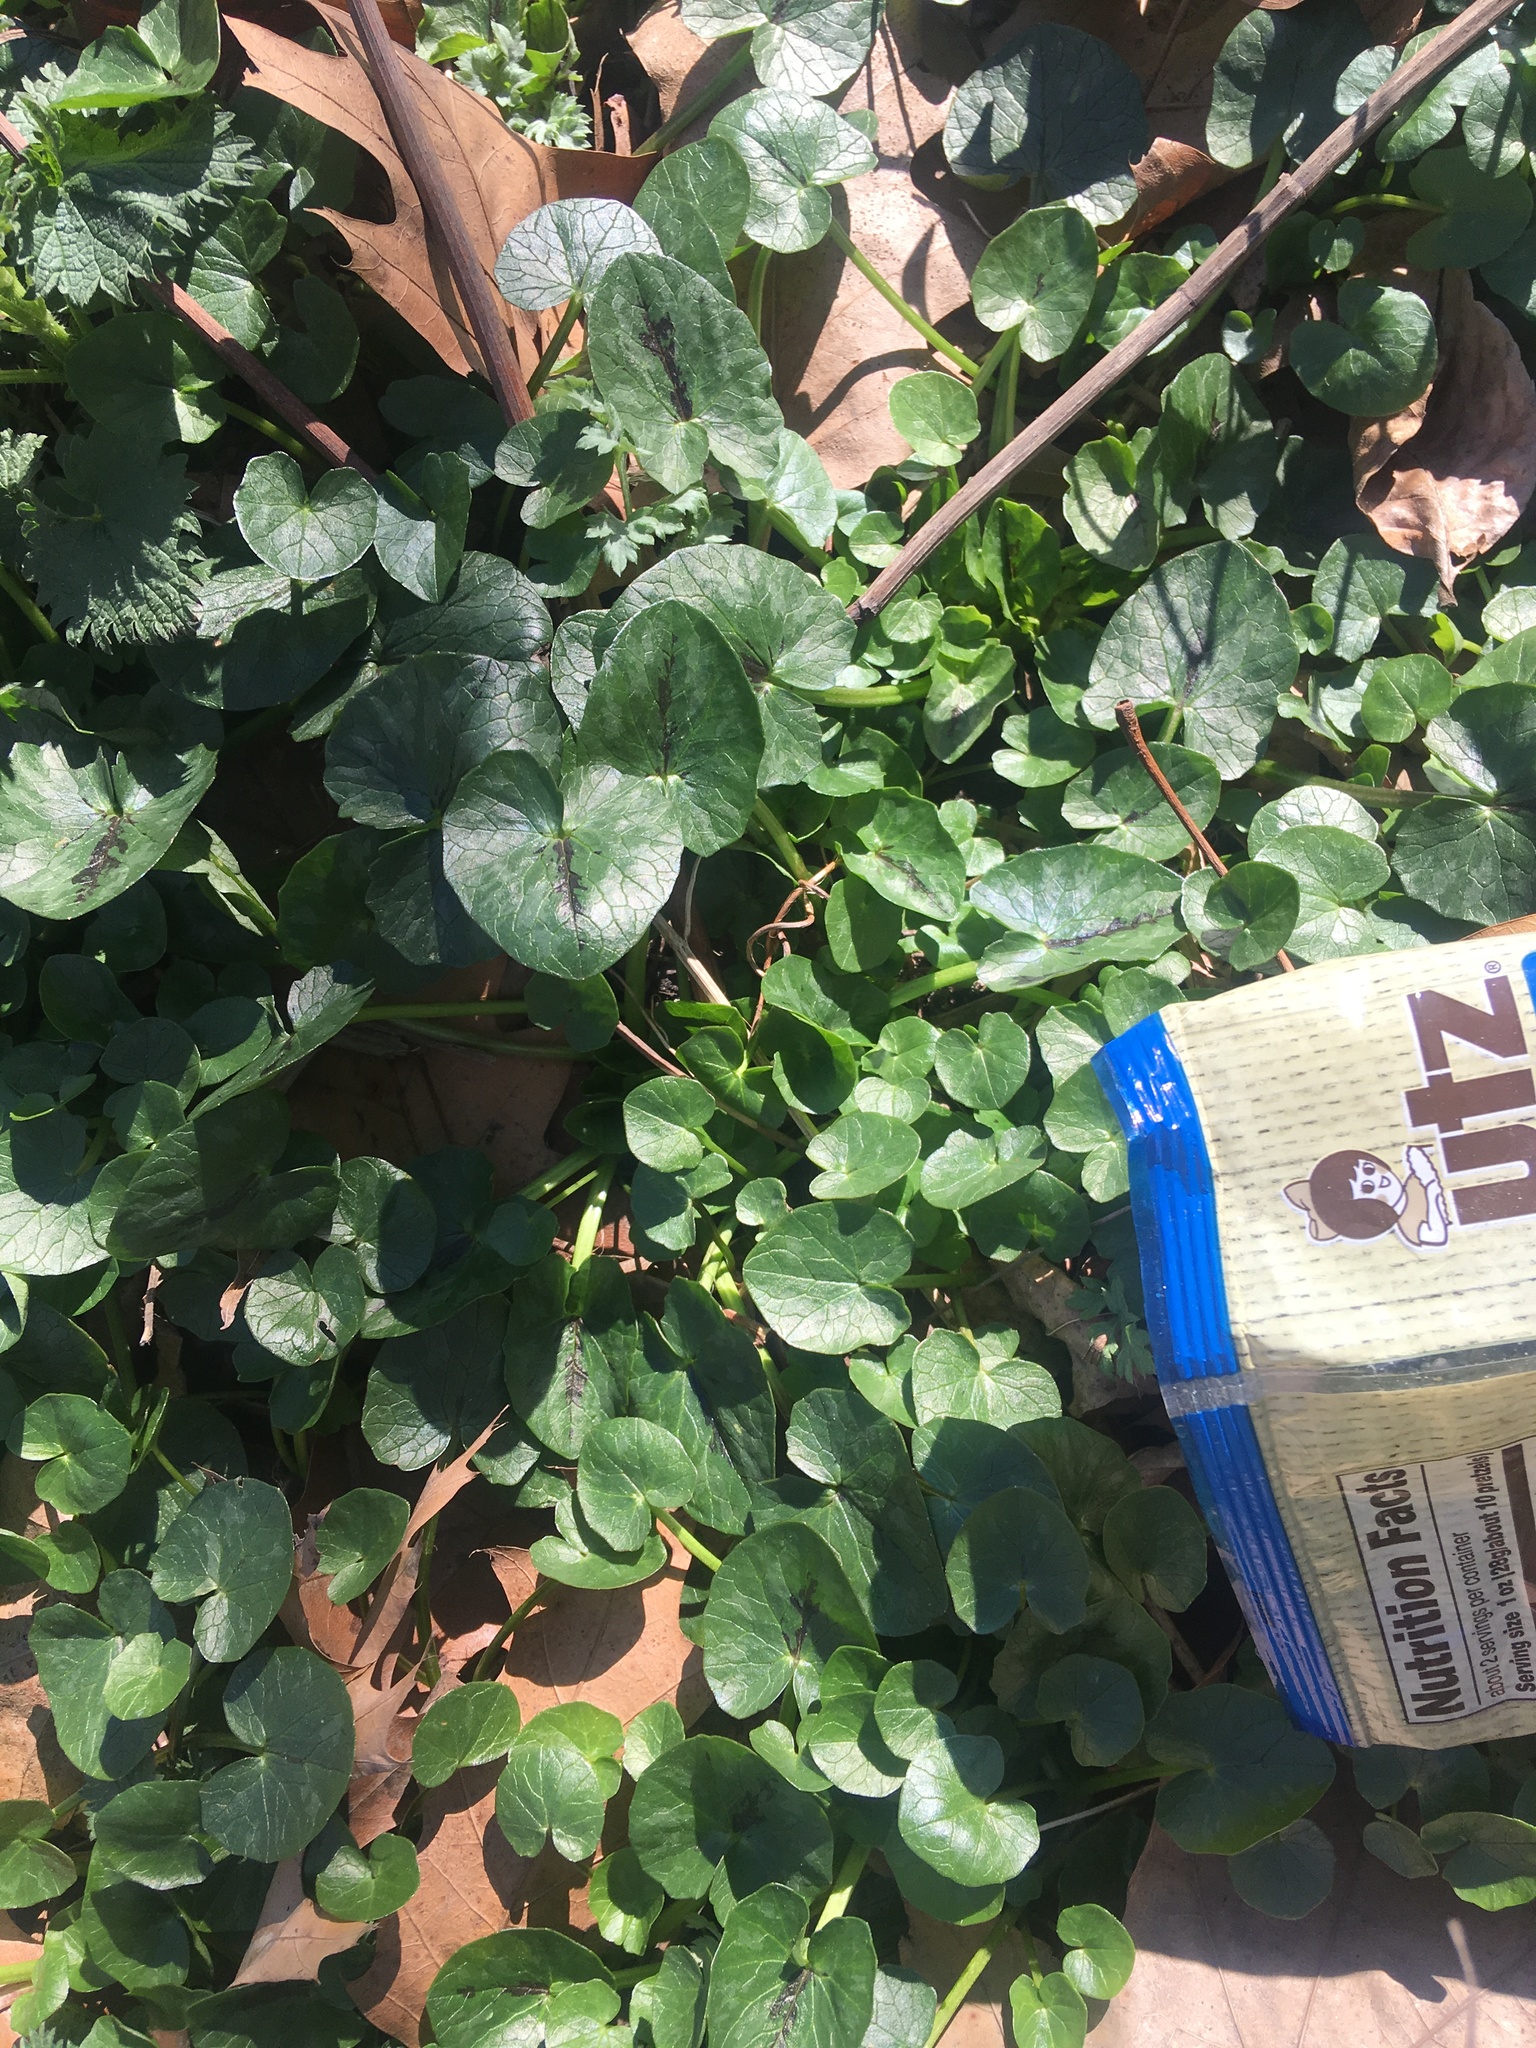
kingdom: Plantae
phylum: Tracheophyta
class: Magnoliopsida
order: Ranunculales
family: Ranunculaceae
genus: Ficaria
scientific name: Ficaria verna
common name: Lesser celandine
